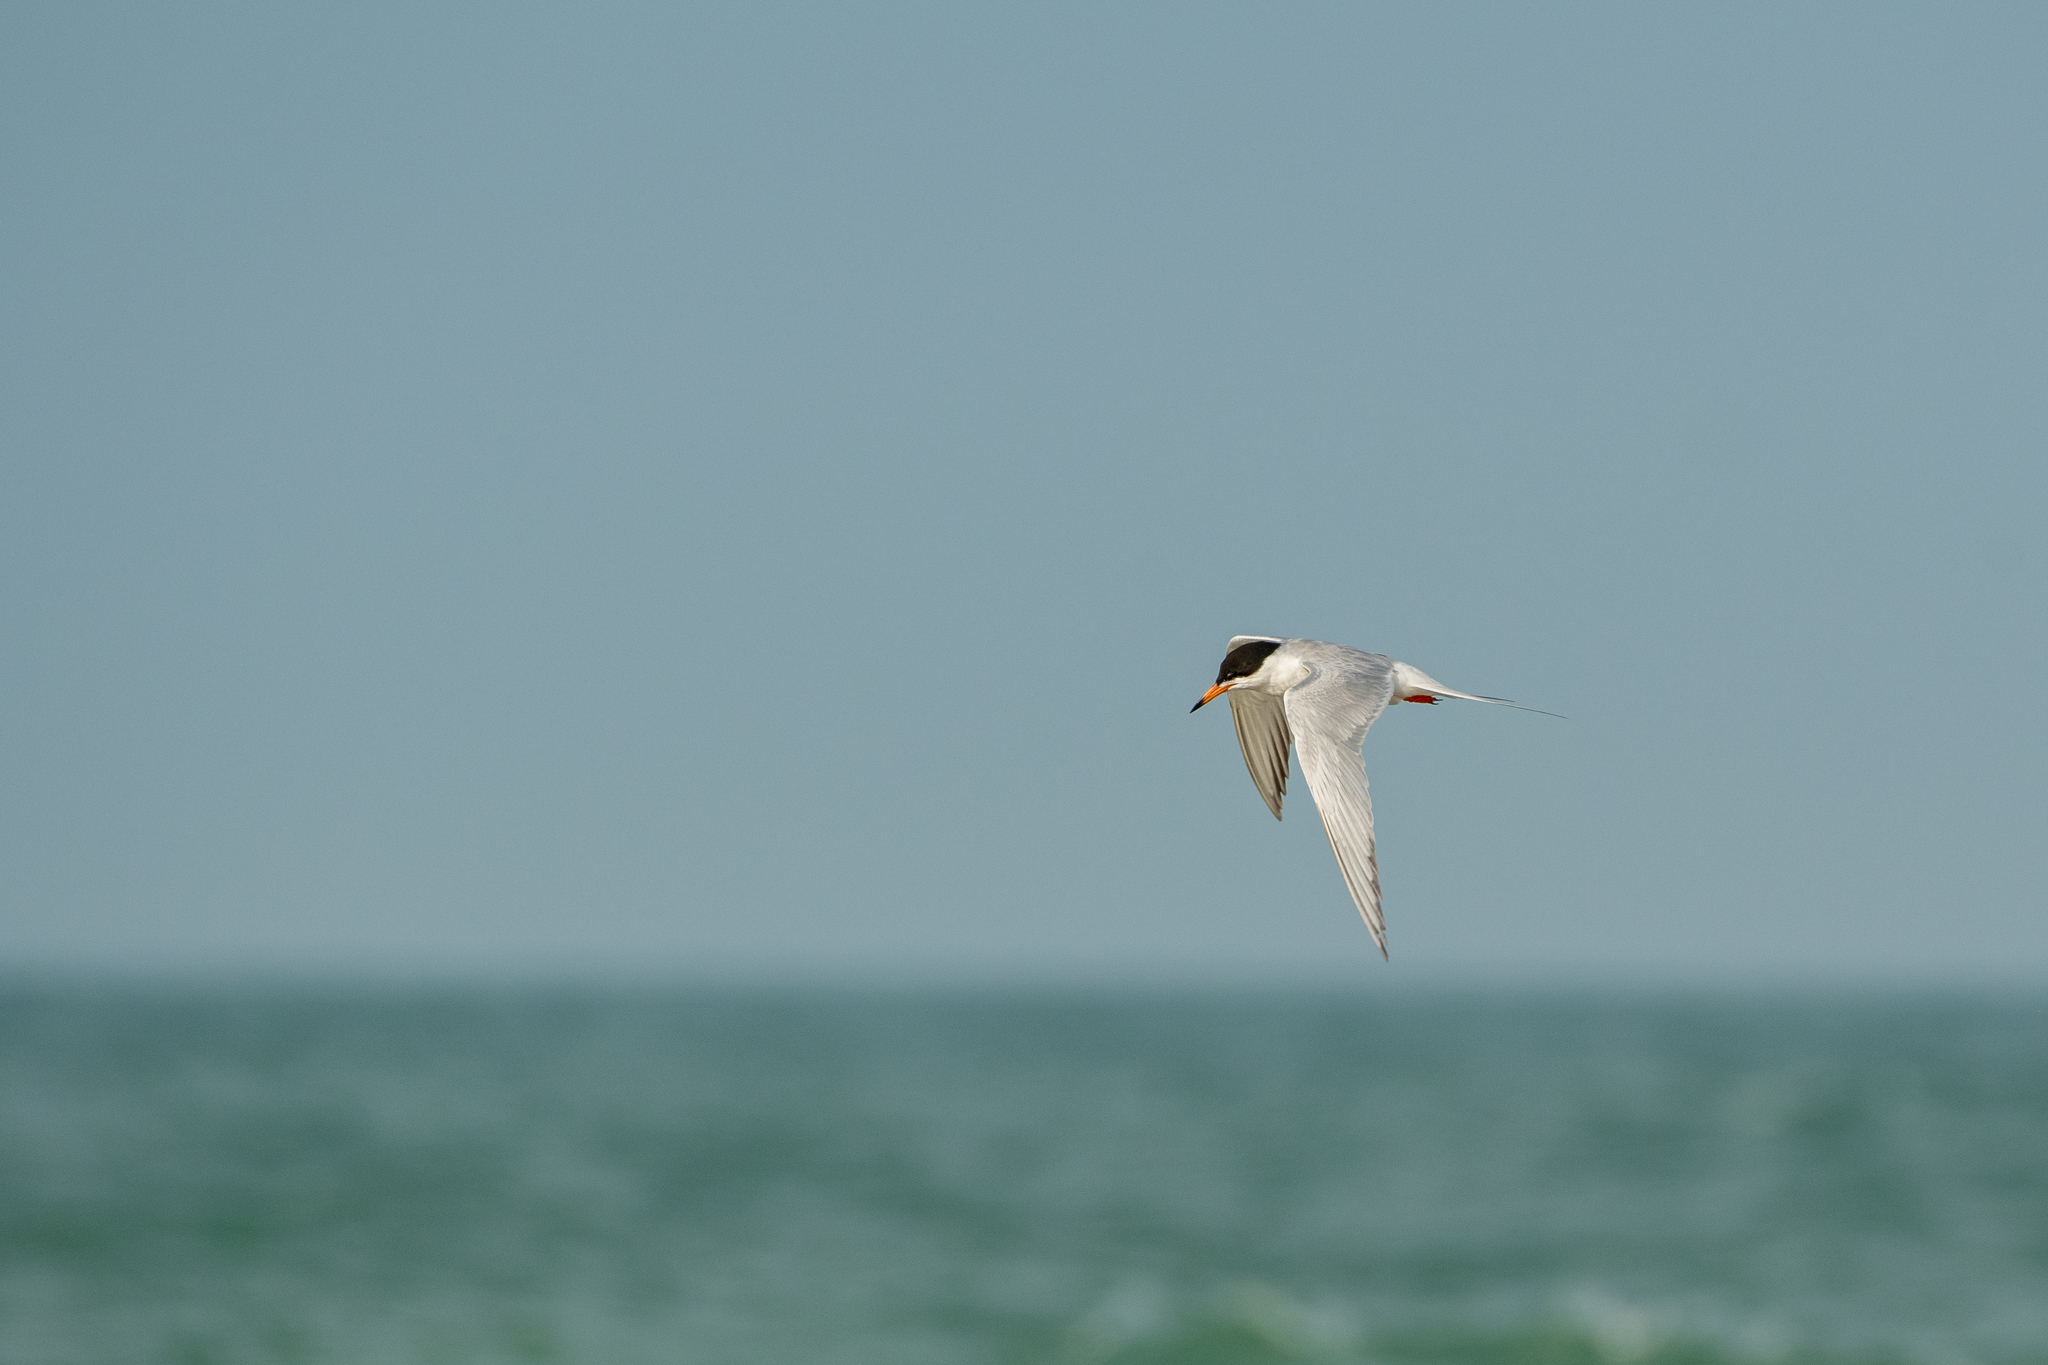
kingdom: Animalia
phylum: Chordata
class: Aves
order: Charadriiformes
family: Laridae
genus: Sterna
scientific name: Sterna forsteri
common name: Forster's tern
